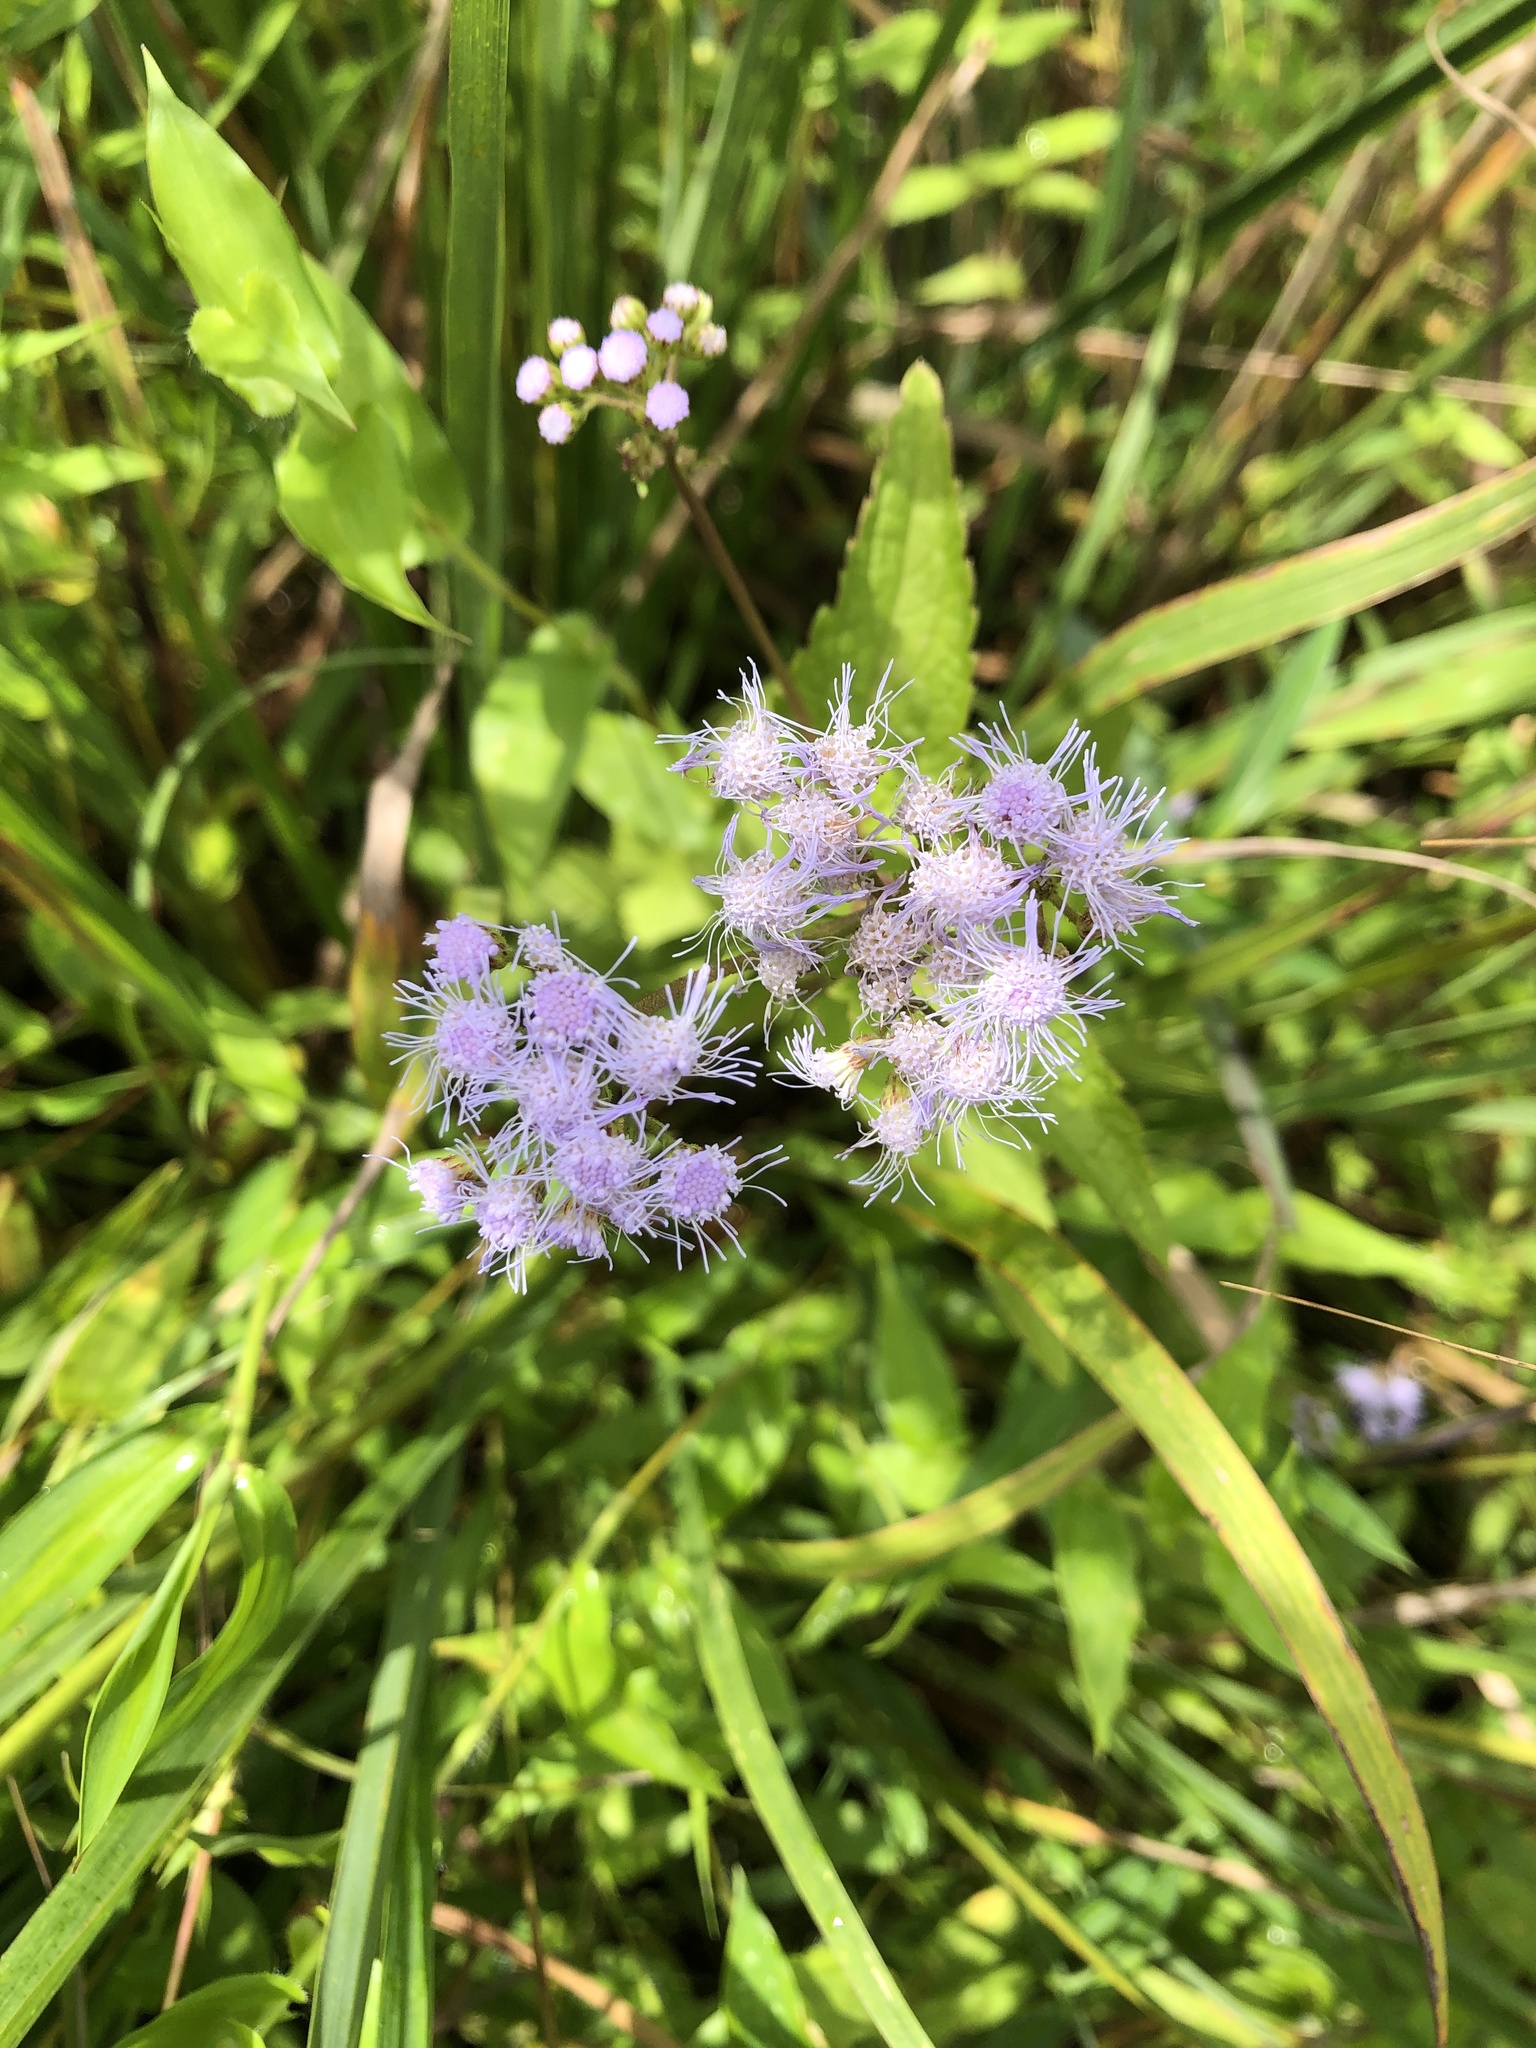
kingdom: Plantae
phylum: Tracheophyta
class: Magnoliopsida
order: Asterales
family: Asteraceae
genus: Conoclinium
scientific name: Conoclinium coelestinum
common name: Blue mistflower
